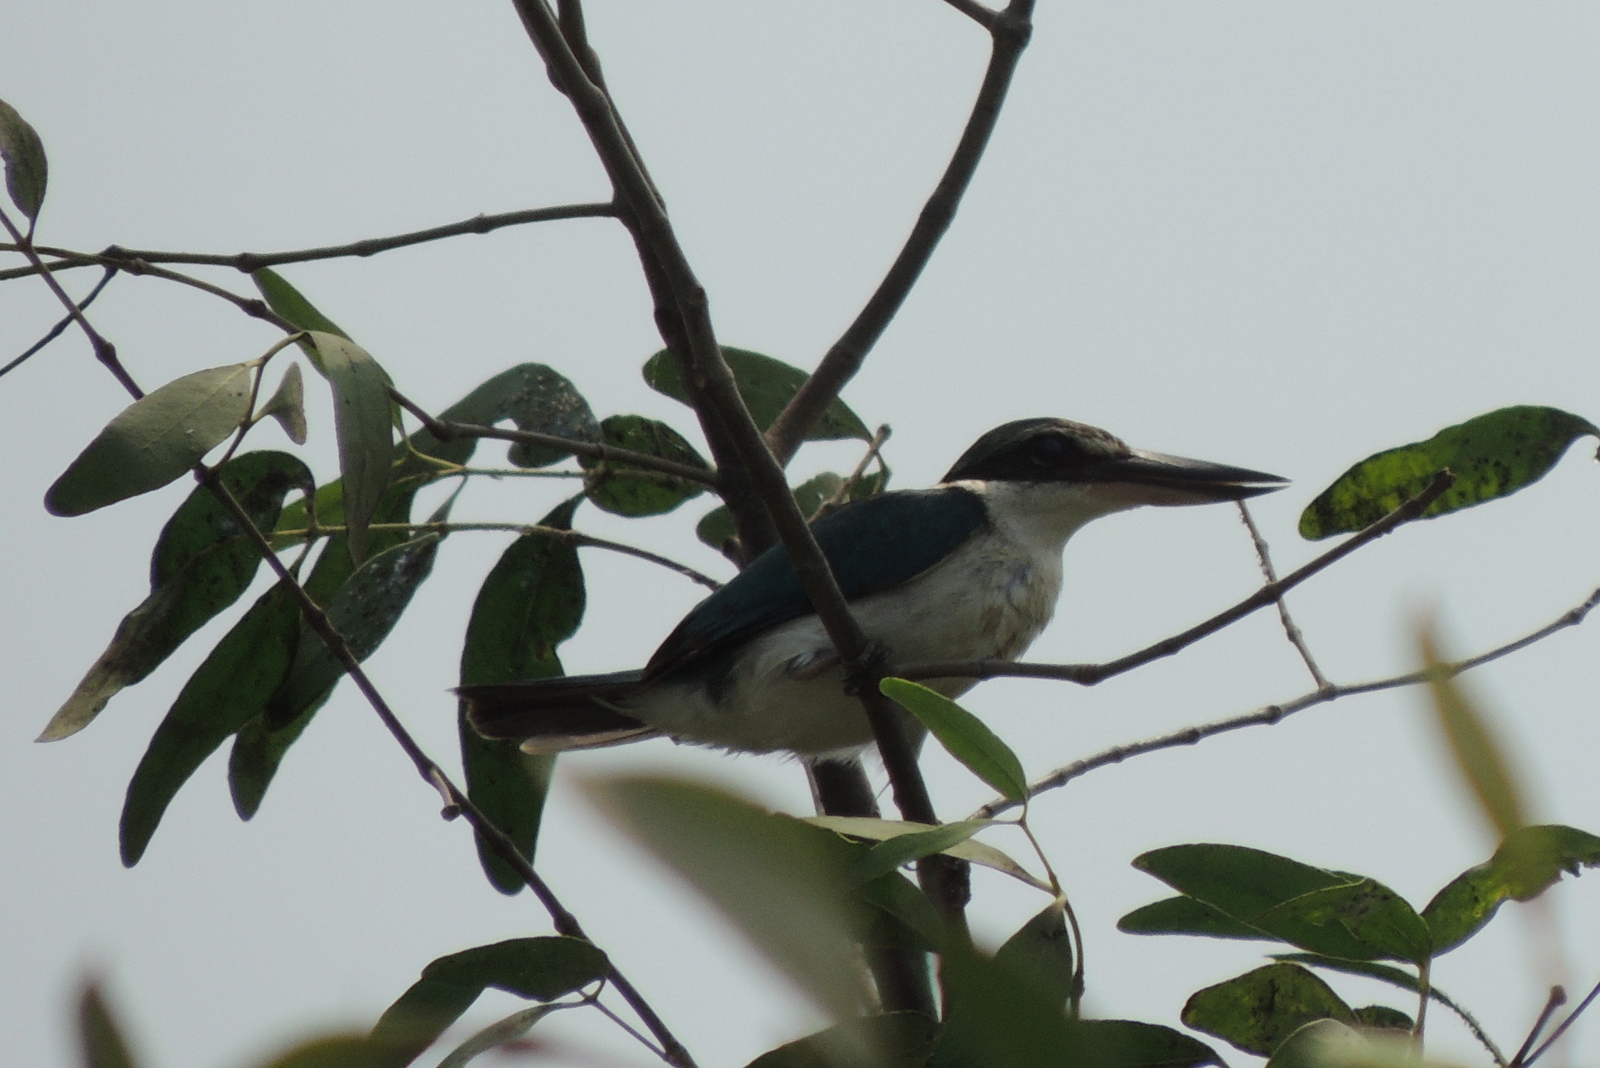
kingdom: Animalia
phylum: Chordata
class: Aves
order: Coraciiformes
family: Alcedinidae
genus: Todiramphus
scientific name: Todiramphus chloris
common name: Collared kingfisher
